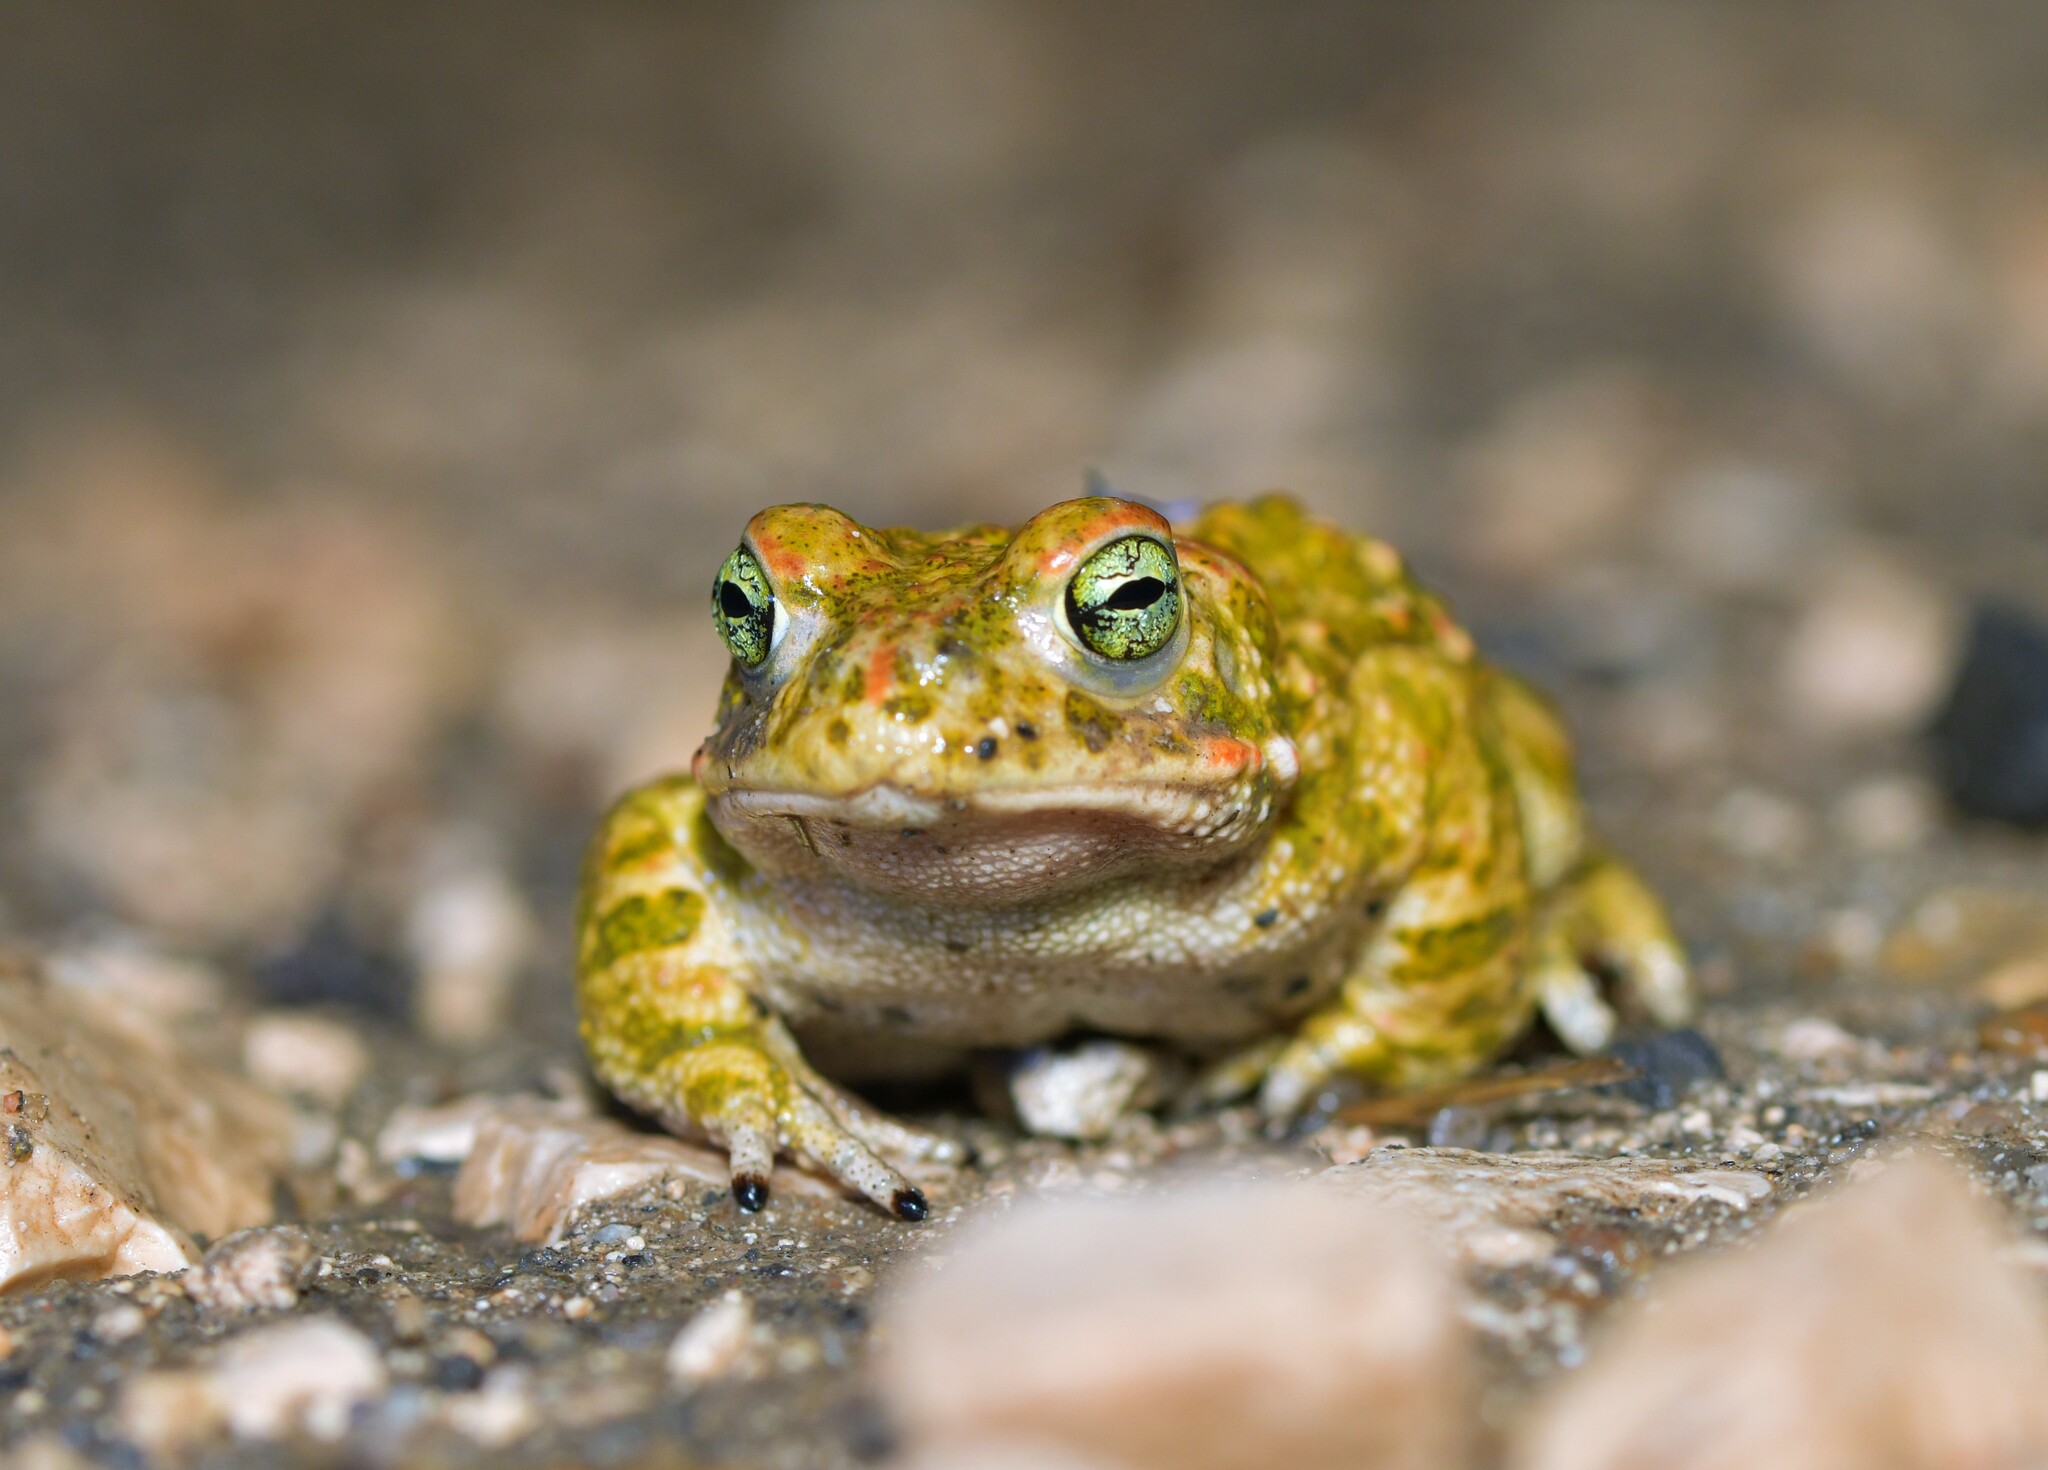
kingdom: Animalia
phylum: Chordata
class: Amphibia
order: Anura
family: Bufonidae
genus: Epidalea
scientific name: Epidalea calamita
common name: Natterjack toad
